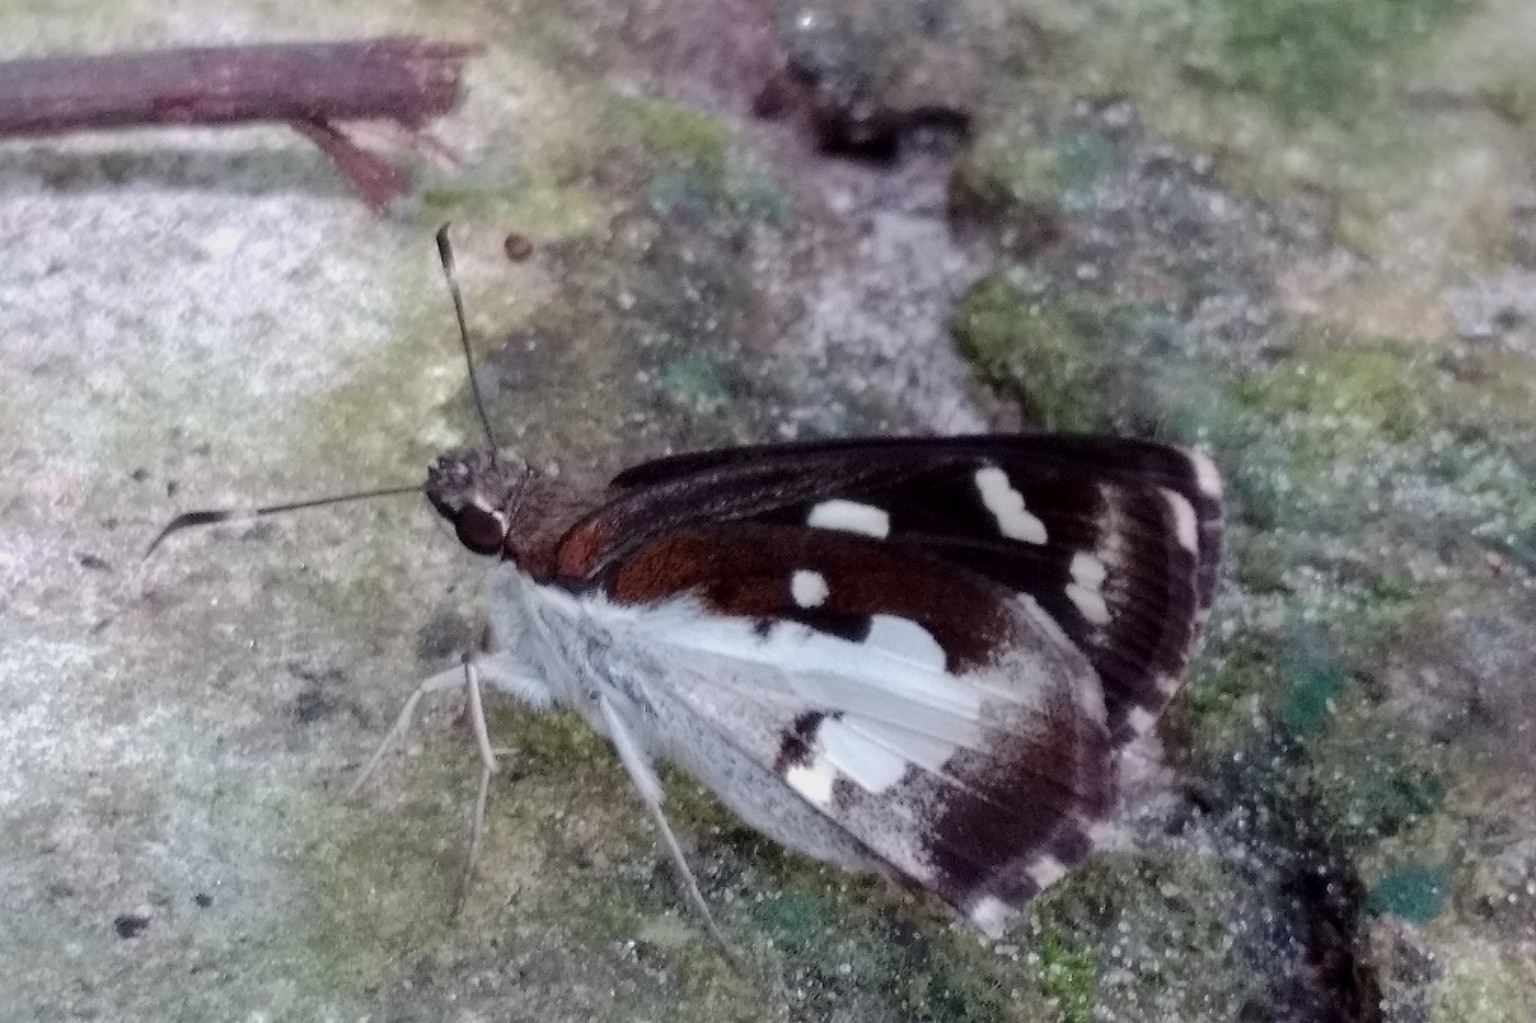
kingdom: Animalia
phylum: Arthropoda
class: Insecta
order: Lepidoptera
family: Hesperiidae
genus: Udaspes
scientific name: Udaspes folus
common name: Grass demon
